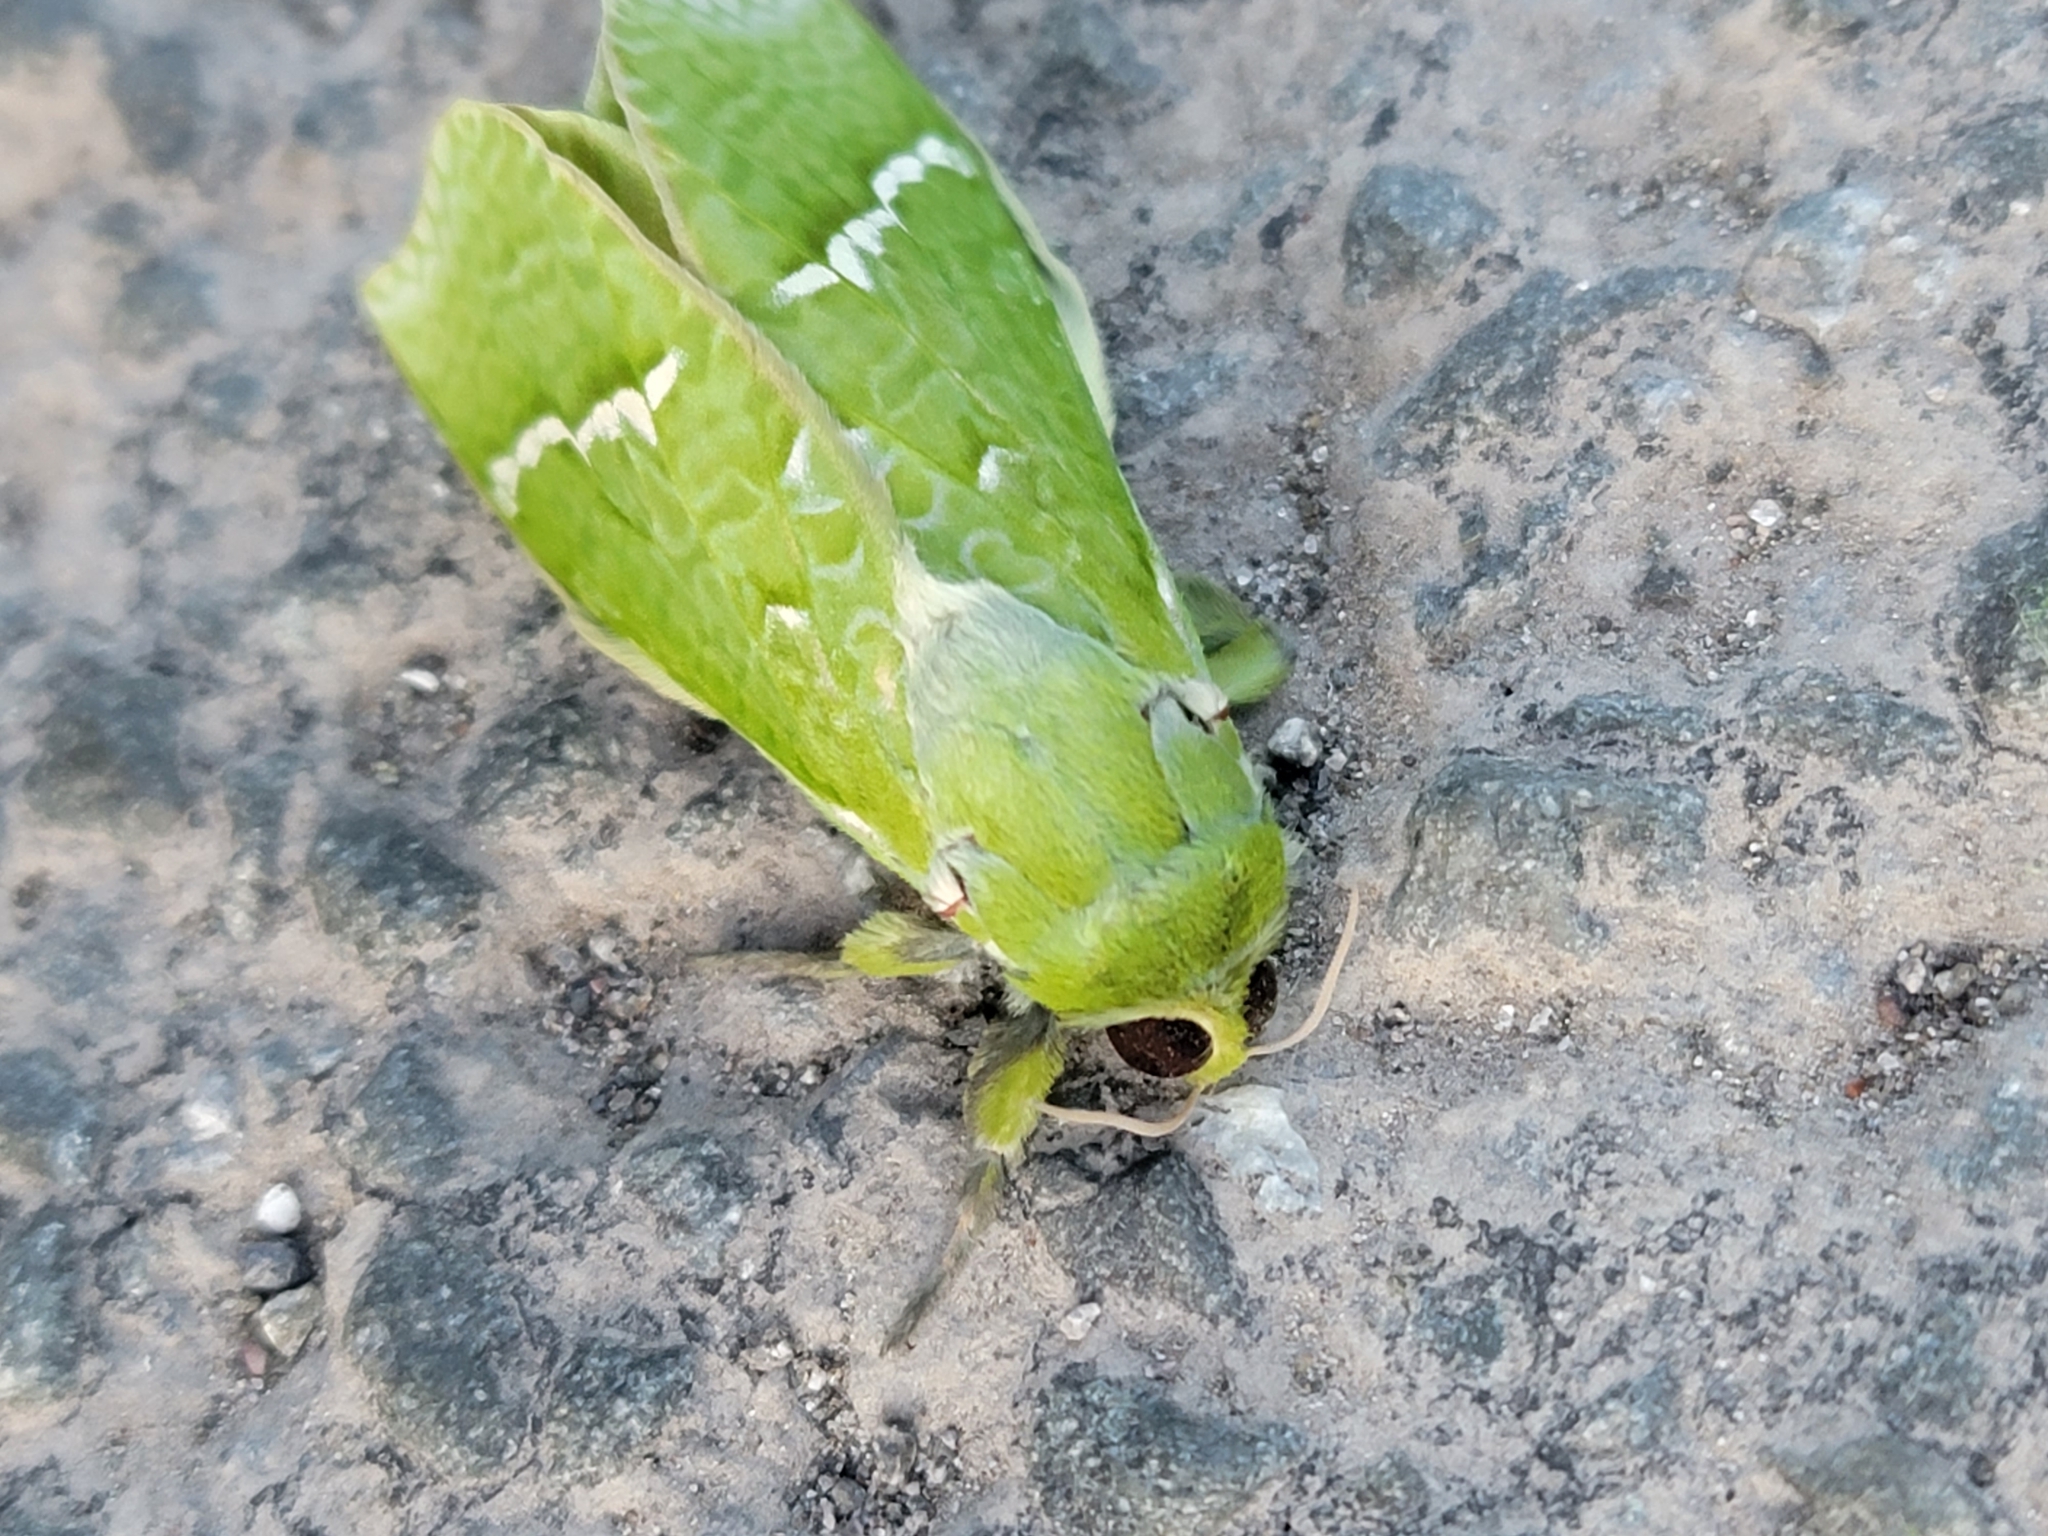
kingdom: Animalia
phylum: Arthropoda
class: Insecta
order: Lepidoptera
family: Hepialidae
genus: Aenetus
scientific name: Aenetus virescens
